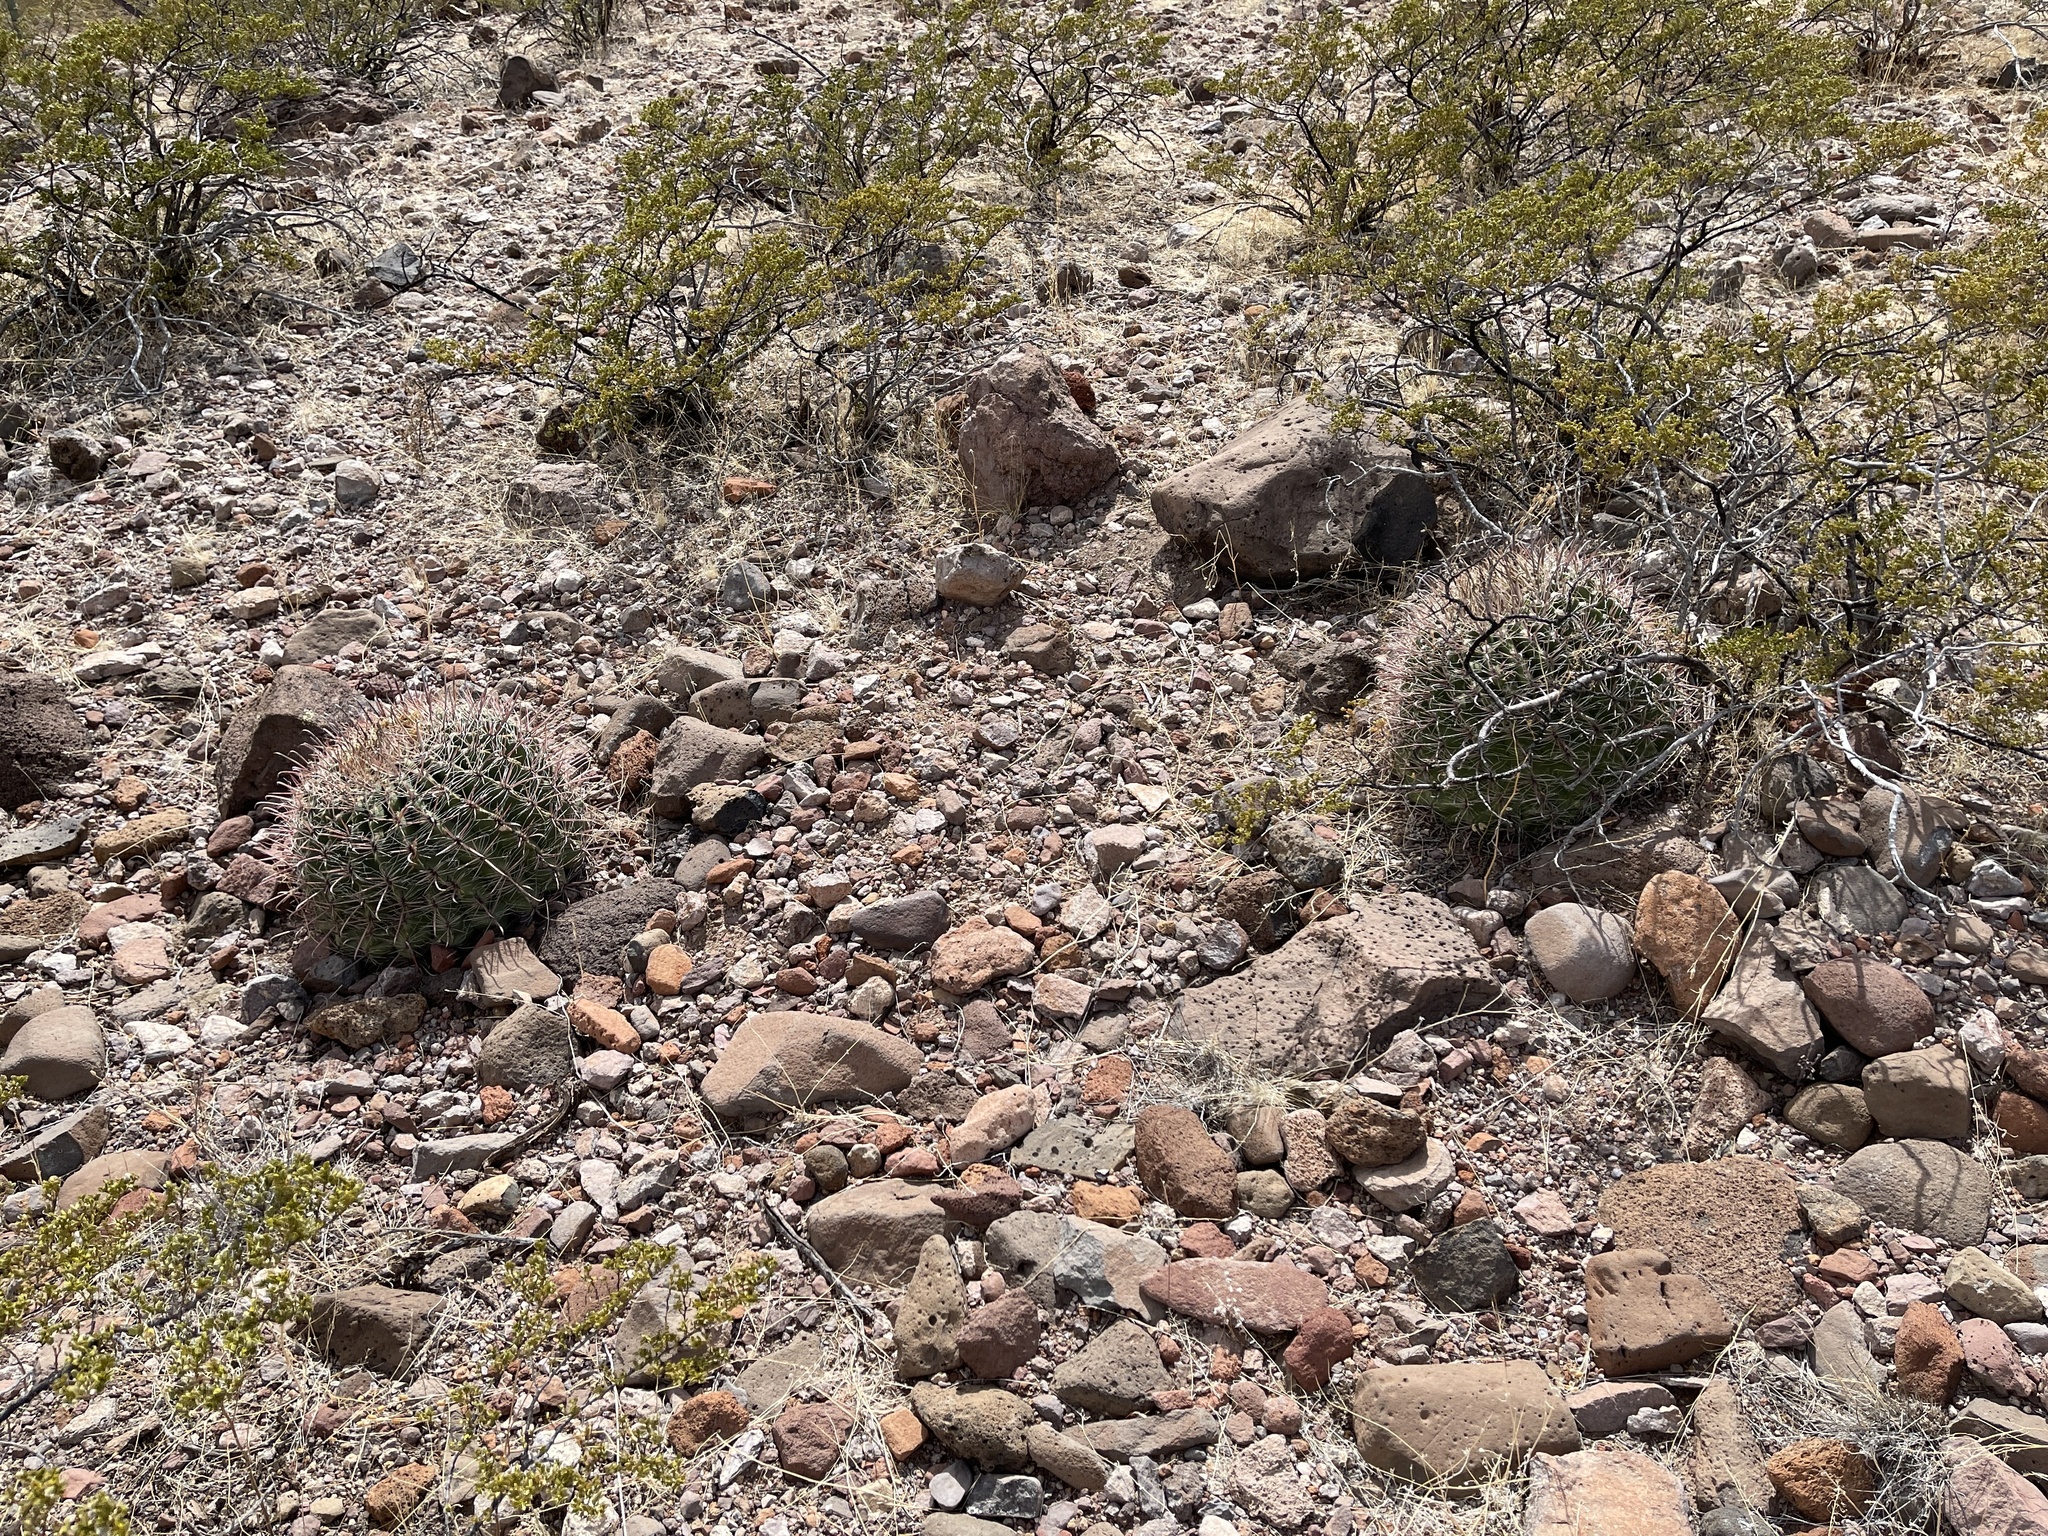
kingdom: Plantae
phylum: Tracheophyta
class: Magnoliopsida
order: Caryophyllales
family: Cactaceae
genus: Ferocactus
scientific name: Ferocactus wislizeni
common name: Candy barrel cactus
